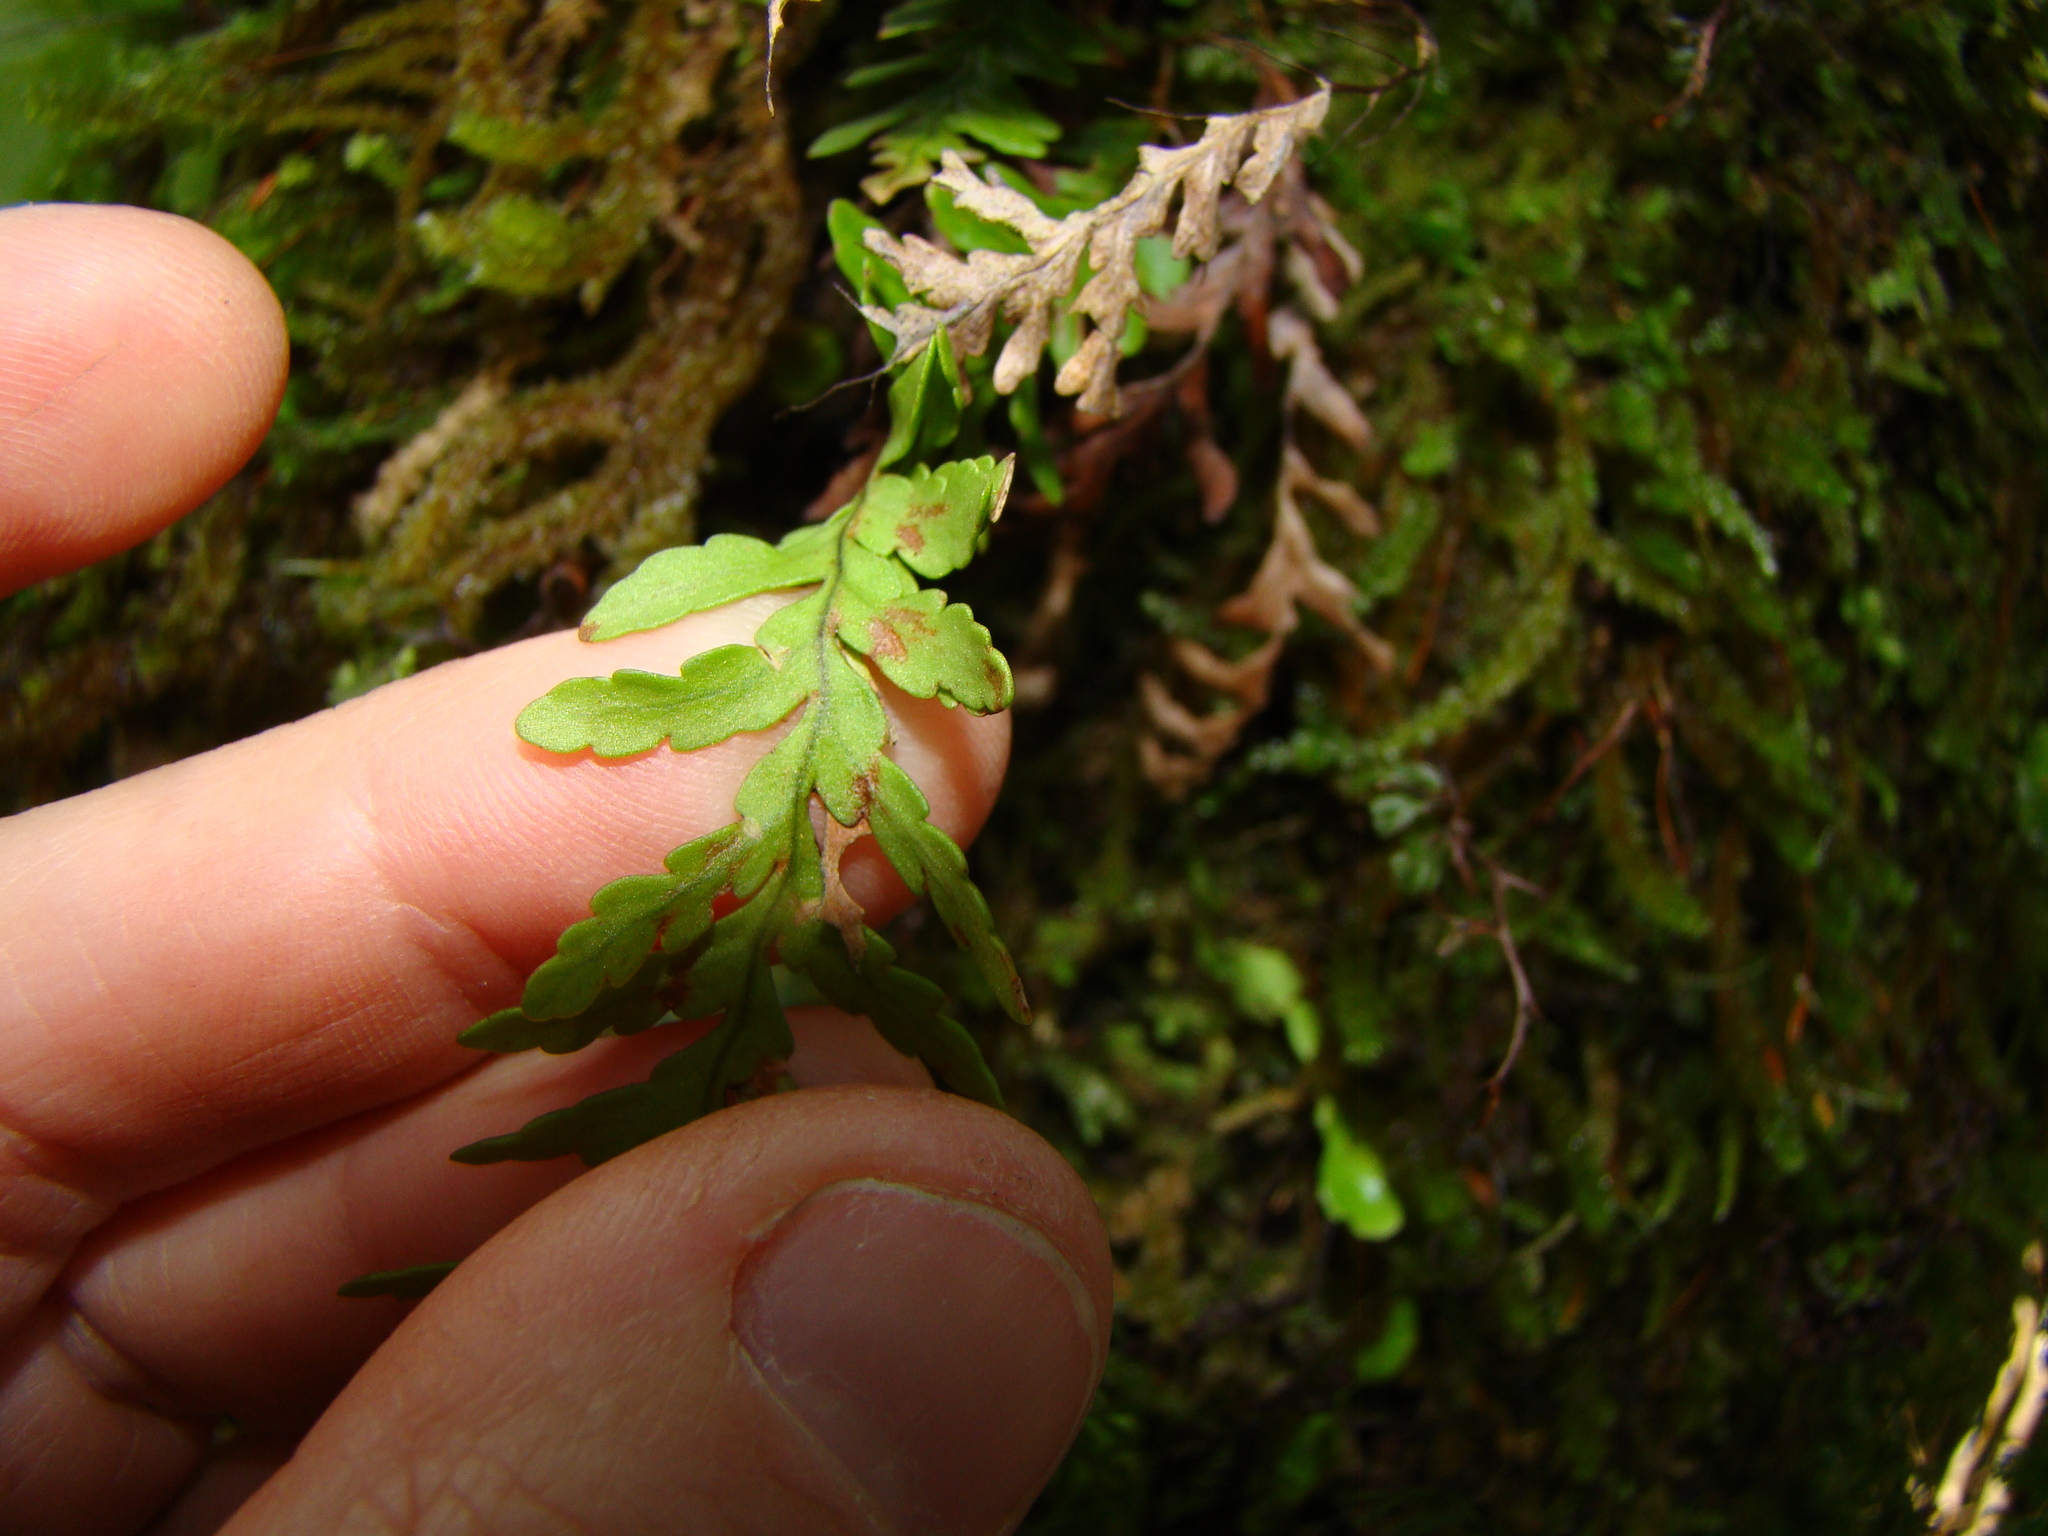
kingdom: Plantae
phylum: Tracheophyta
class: Polypodiopsida
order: Polypodiales
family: Polypodiaceae
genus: Notogrammitis
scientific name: Notogrammitis heterophylla
